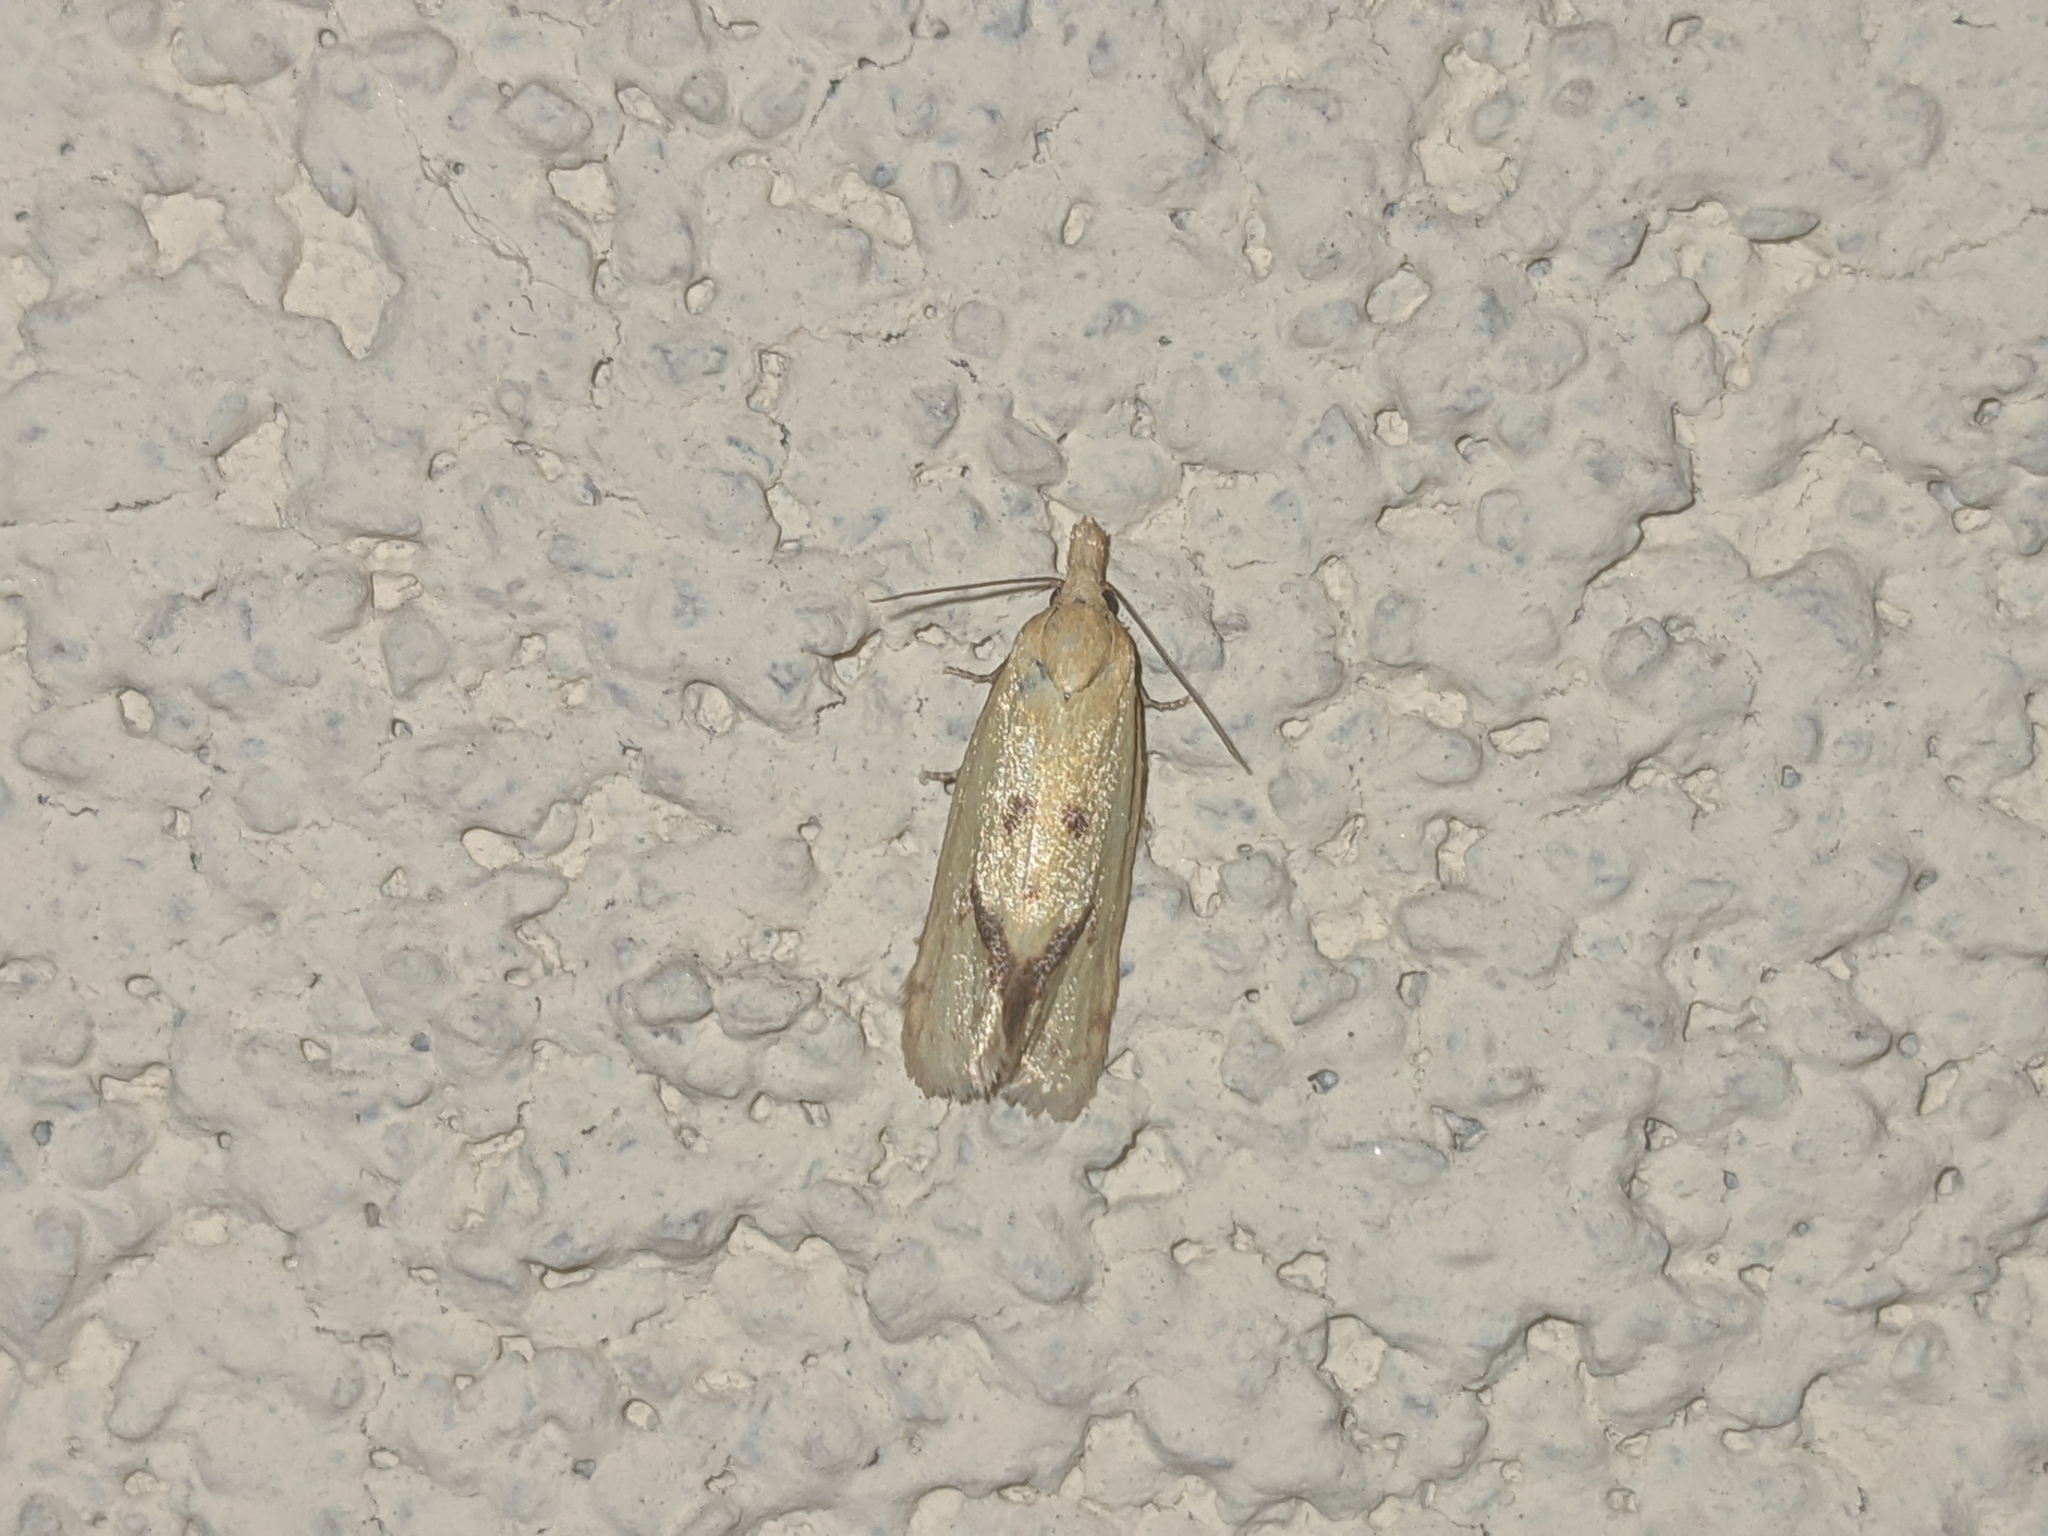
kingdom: Animalia
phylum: Arthropoda
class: Insecta
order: Lepidoptera
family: Tortricidae
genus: Agapeta
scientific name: Agapeta hamana
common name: Common yellow conch
